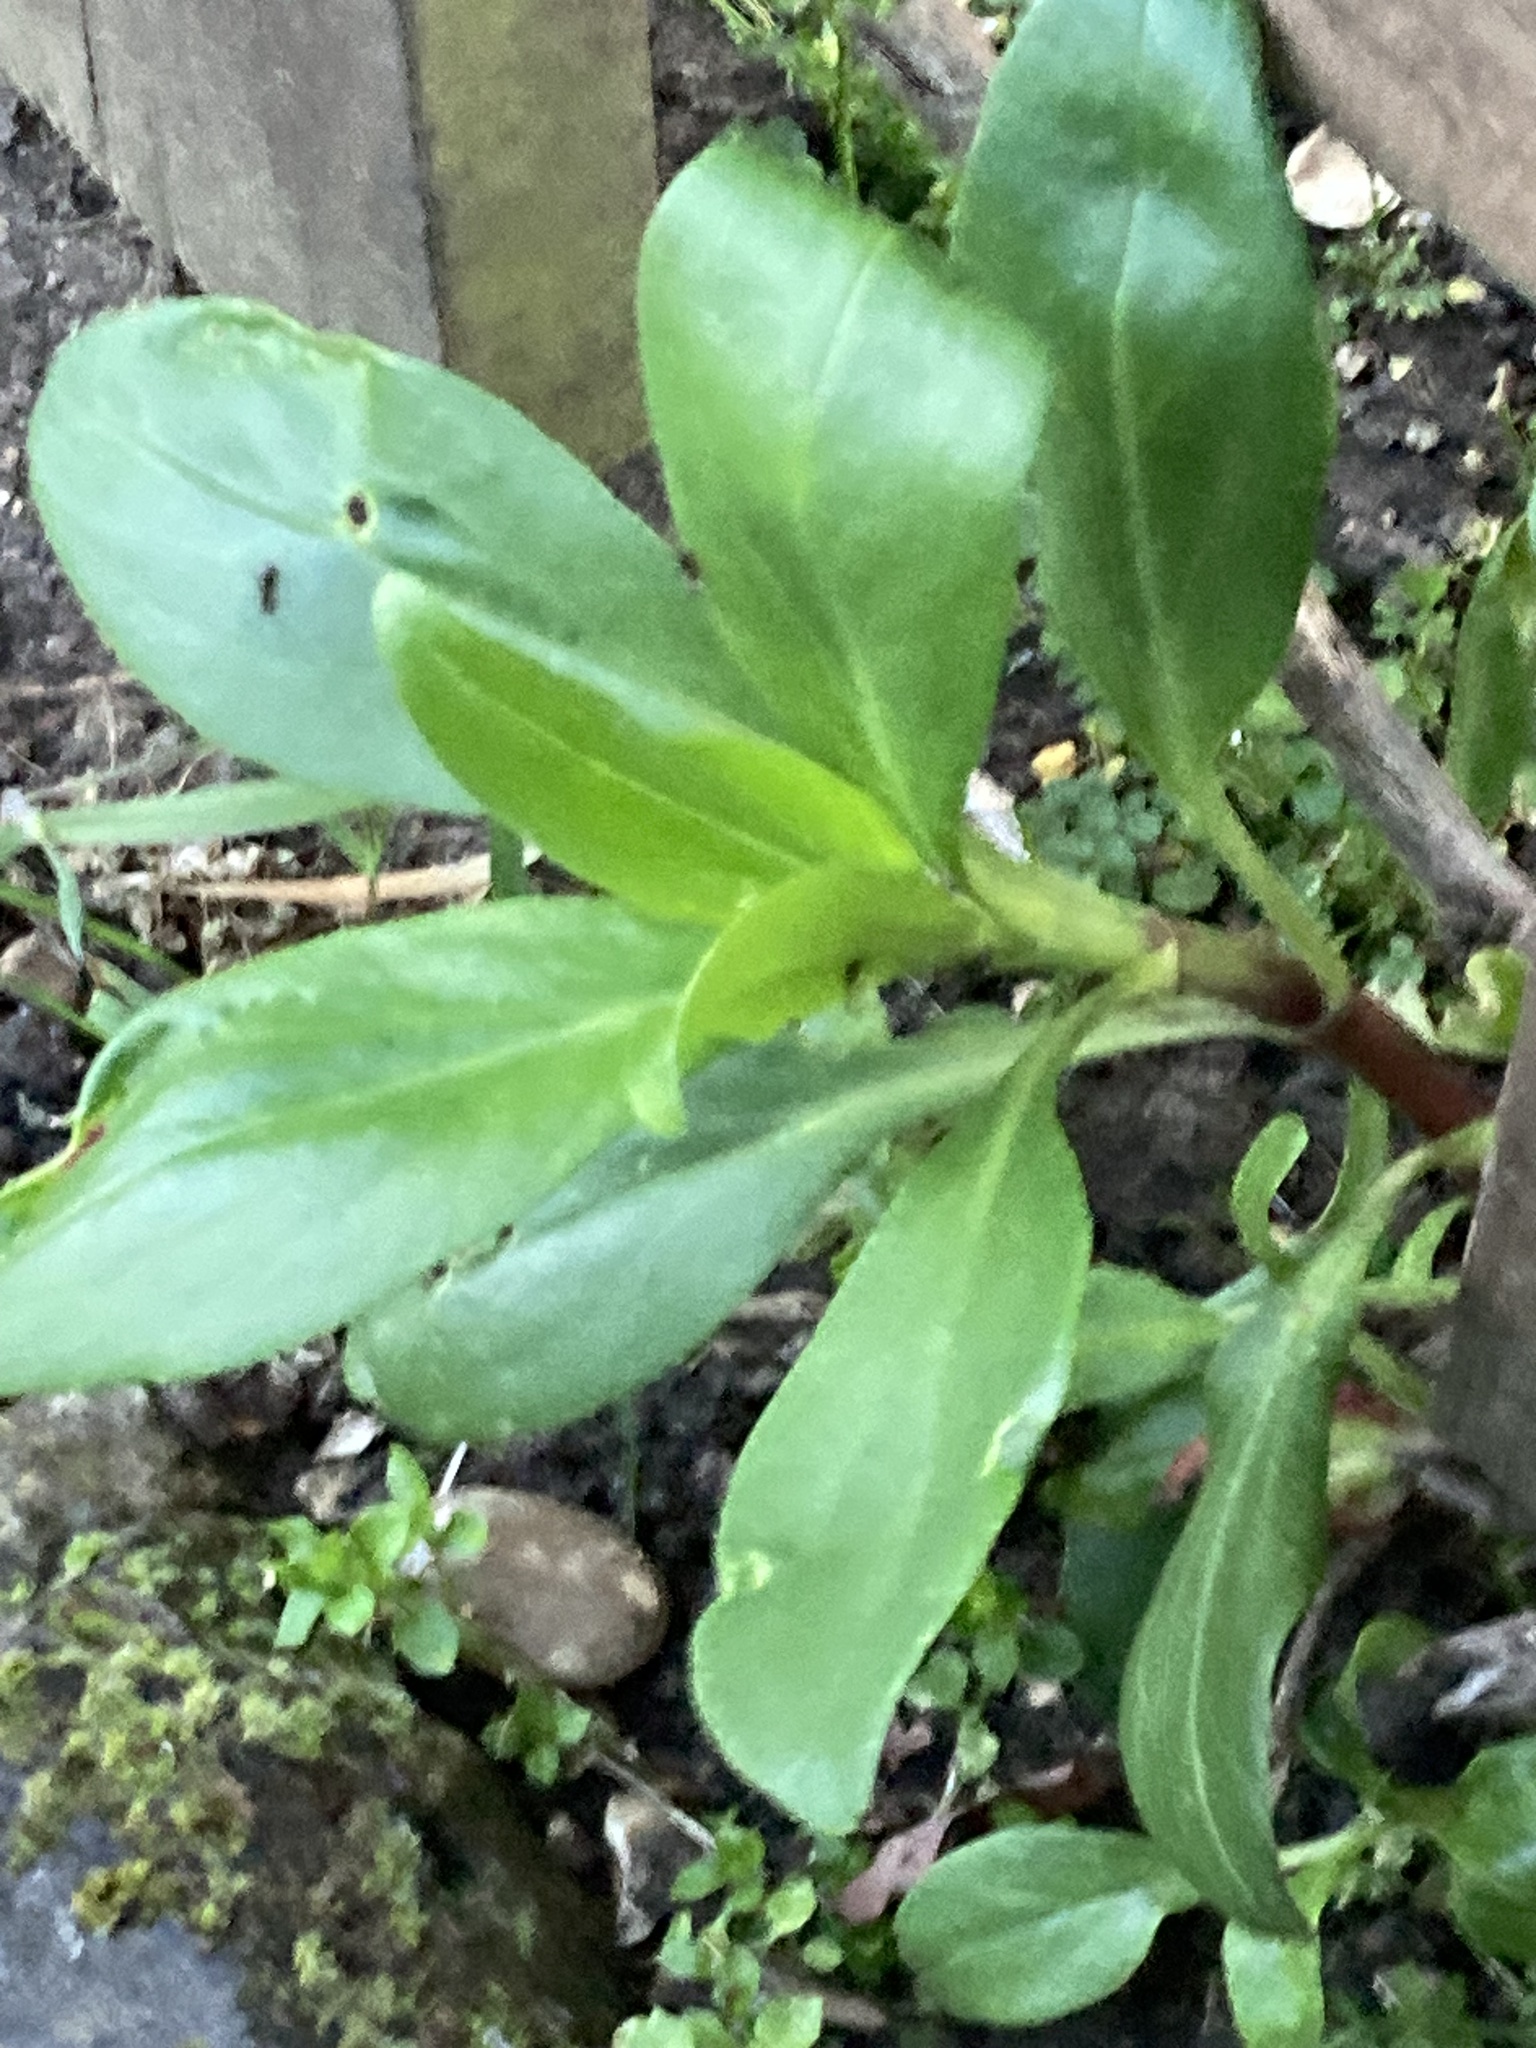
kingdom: Plantae
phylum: Tracheophyta
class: Magnoliopsida
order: Dipsacales
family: Caprifoliaceae
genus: Centranthus
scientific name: Centranthus ruber
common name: Red valerian
